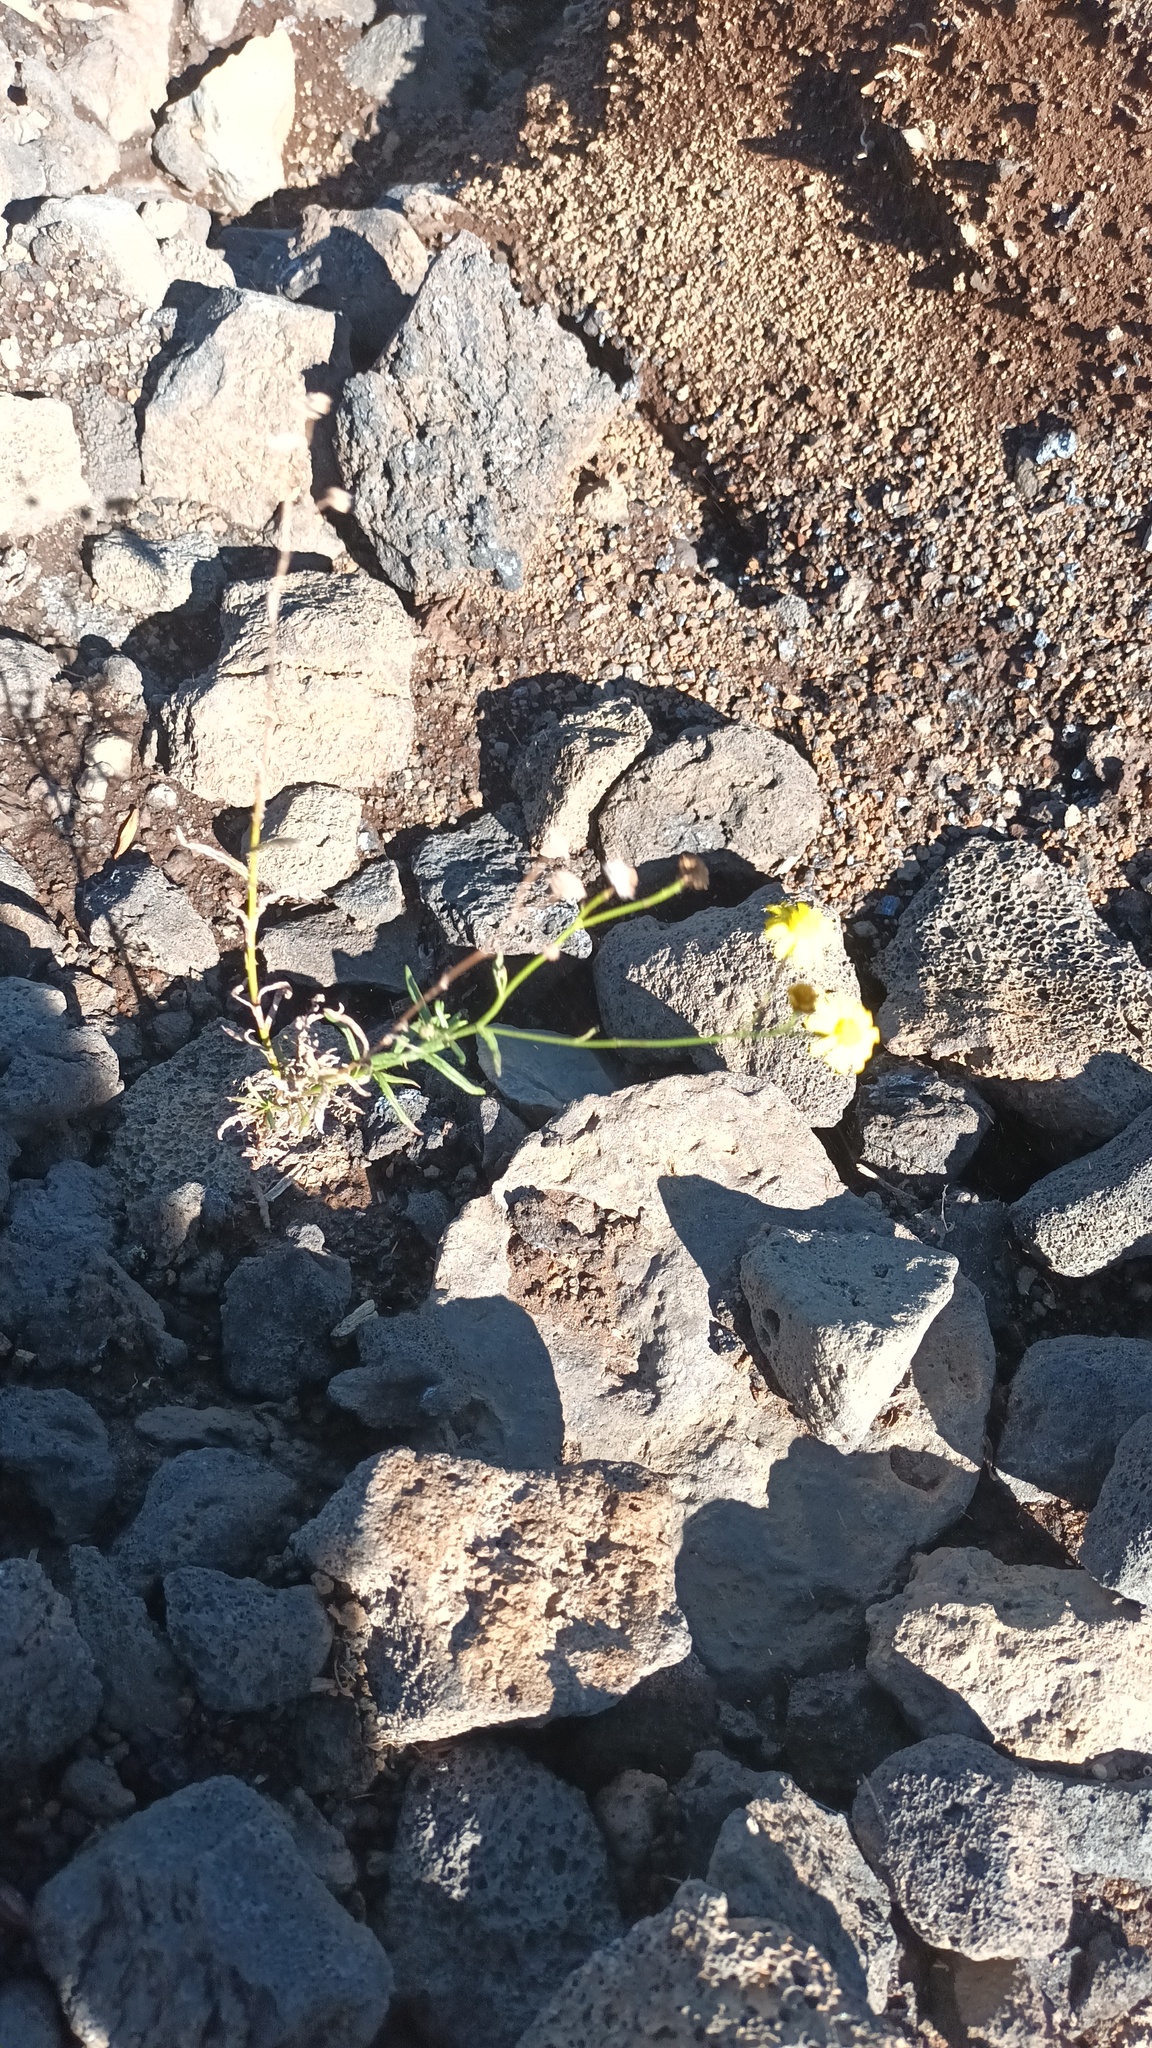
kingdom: Plantae
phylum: Tracheophyta
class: Magnoliopsida
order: Asterales
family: Asteraceae
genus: Senecio
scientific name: Senecio madagascariensis
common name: Madagascar ragwort
